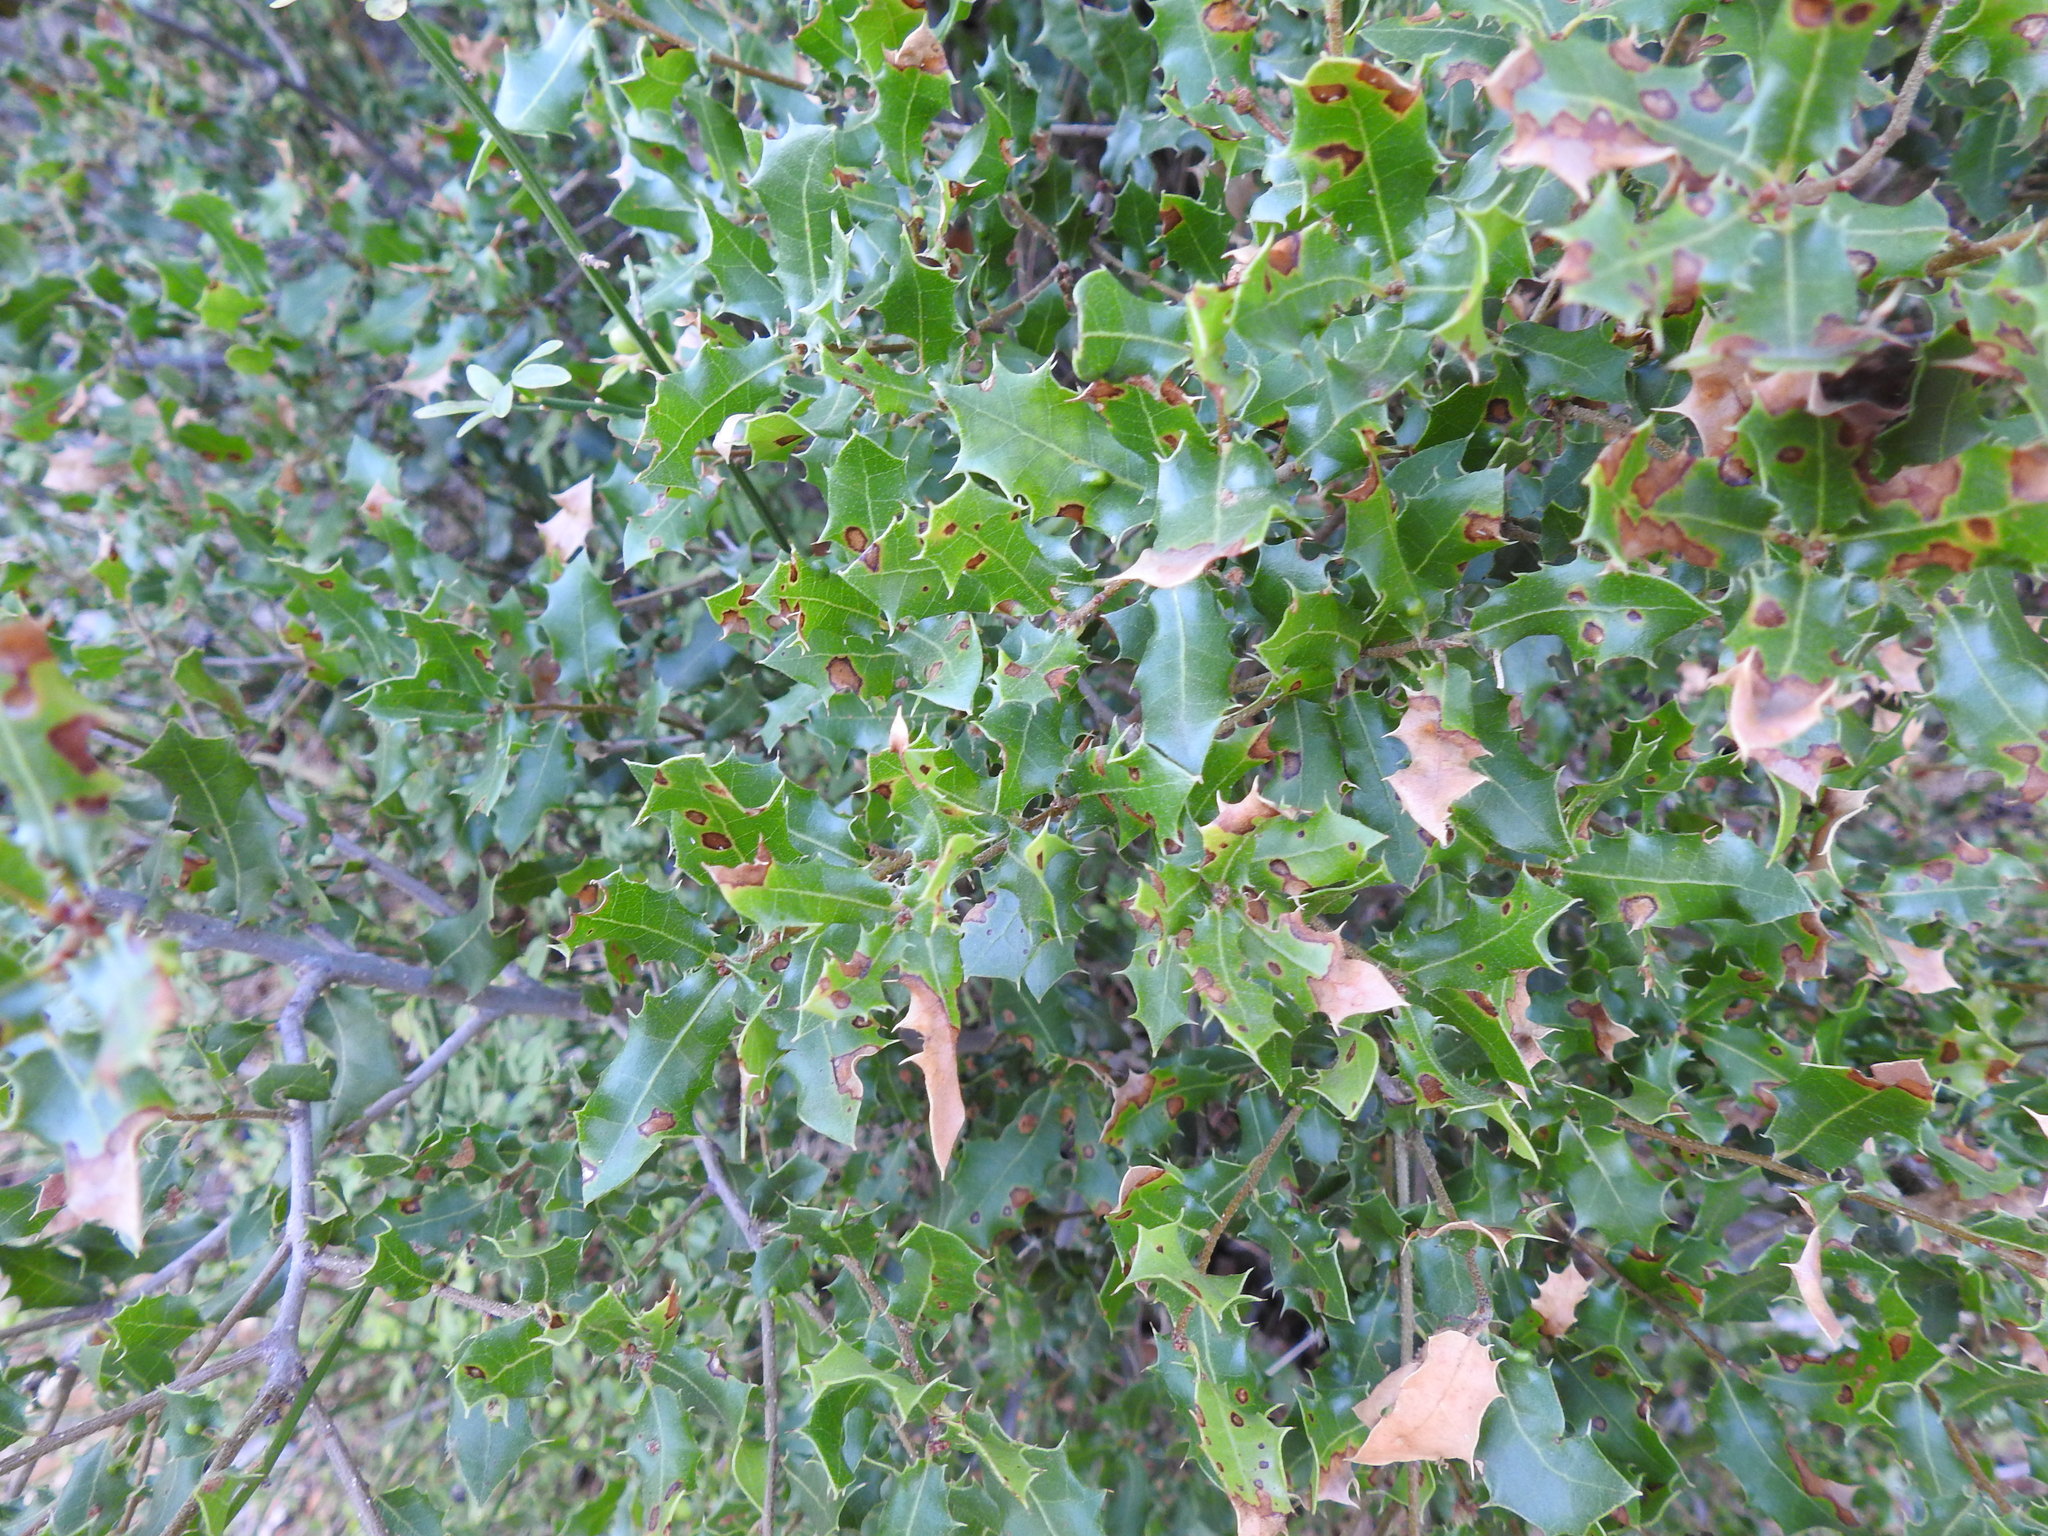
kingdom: Plantae
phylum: Tracheophyta
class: Magnoliopsida
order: Fagales
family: Fagaceae
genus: Quercus
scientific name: Quercus coccifera
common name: Kermes oak
